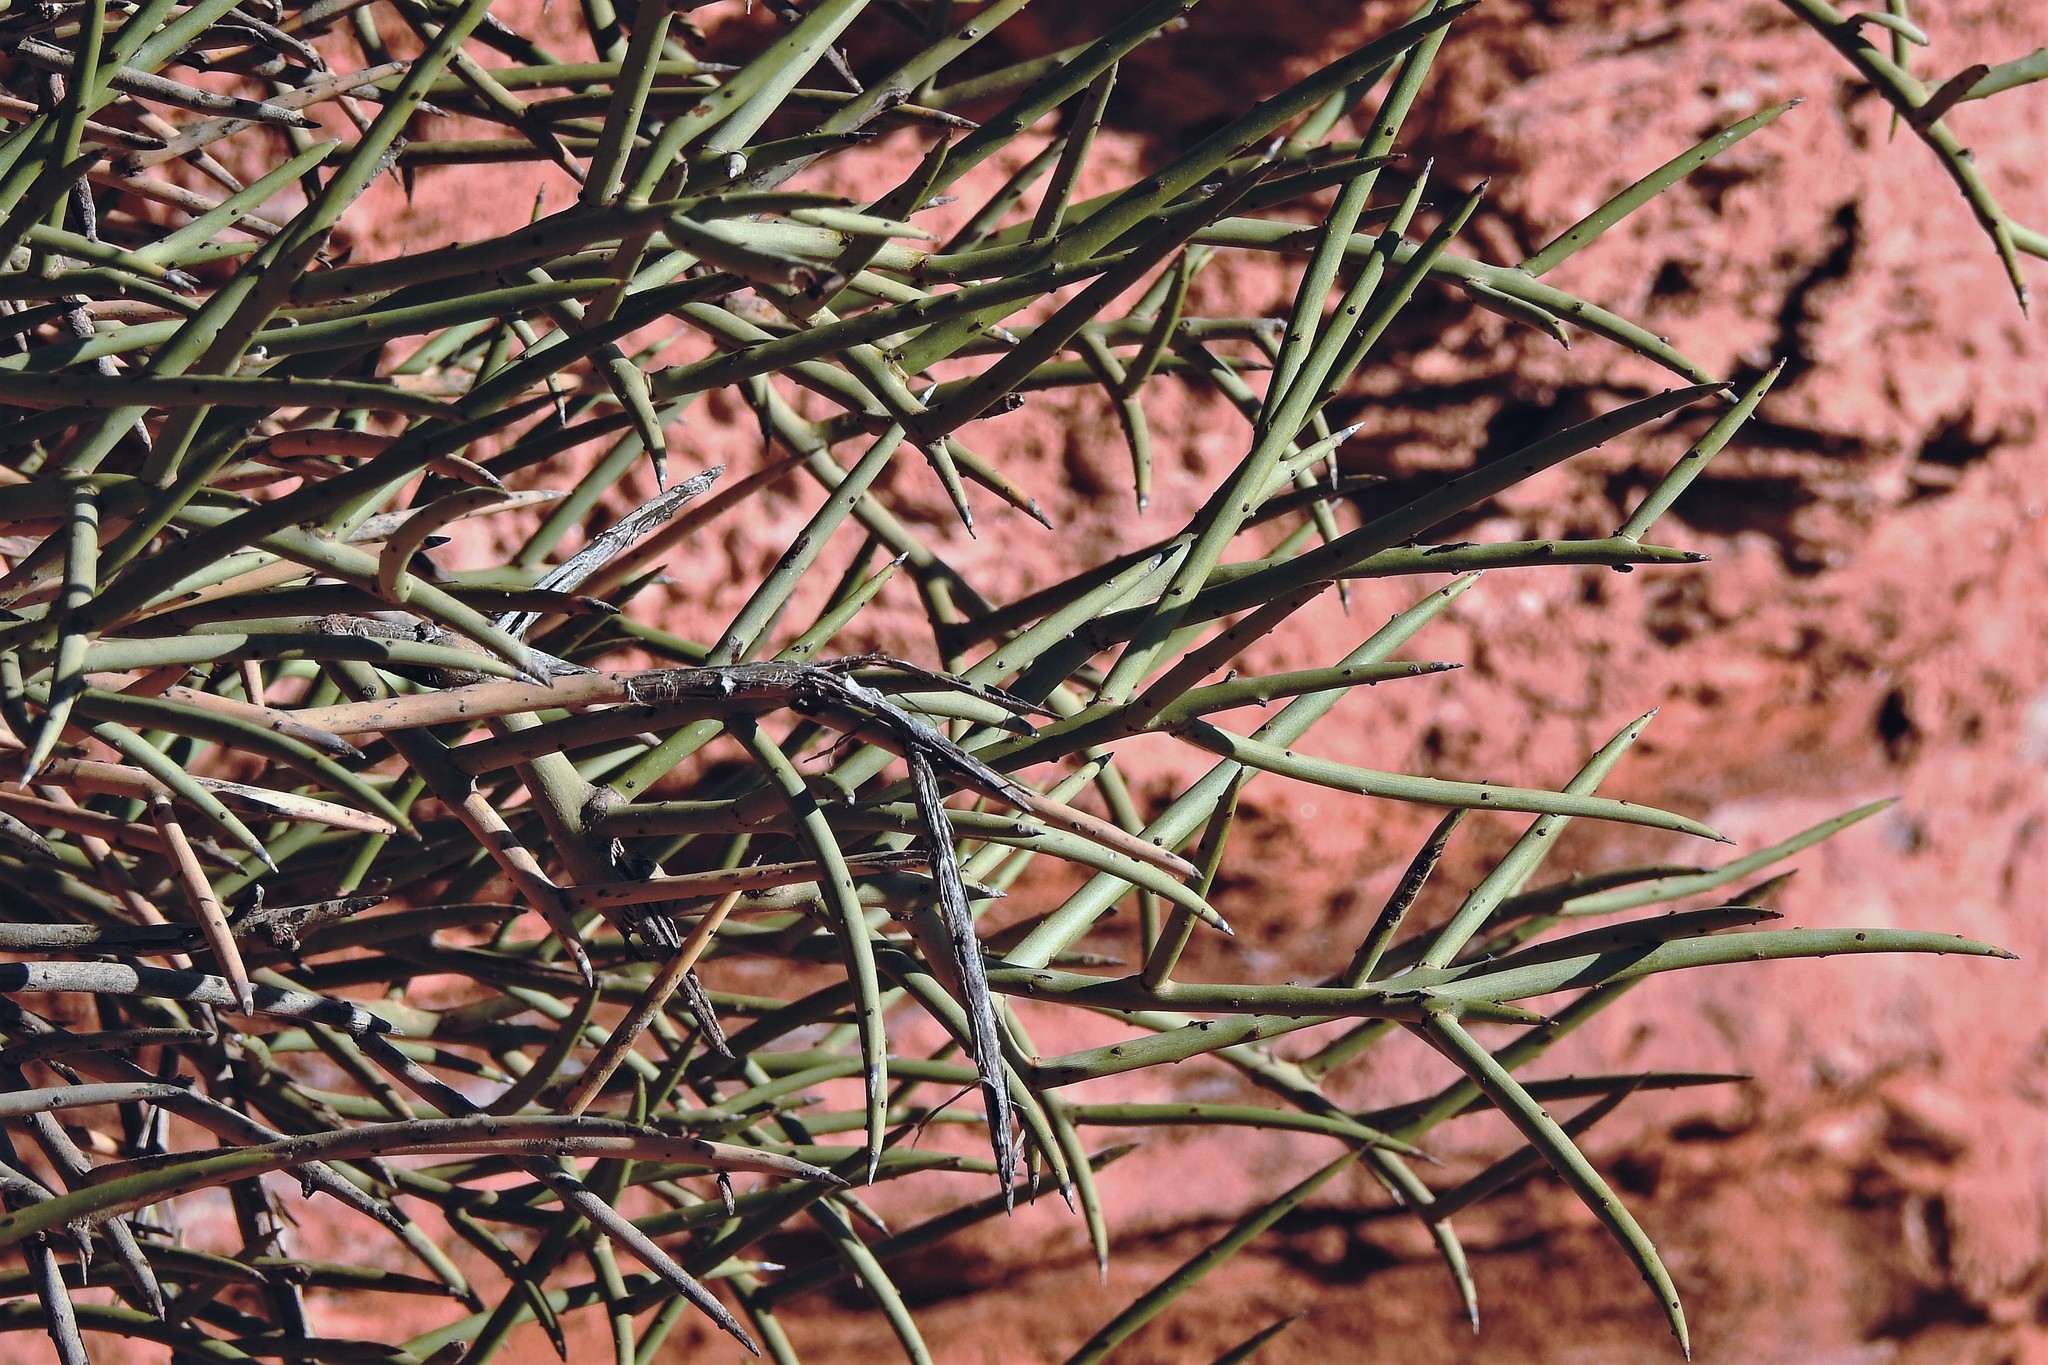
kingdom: Plantae
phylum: Tracheophyta
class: Magnoliopsida
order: Fabales
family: Fabaceae
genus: Ramorinoa
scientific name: Ramorinoa girolae
